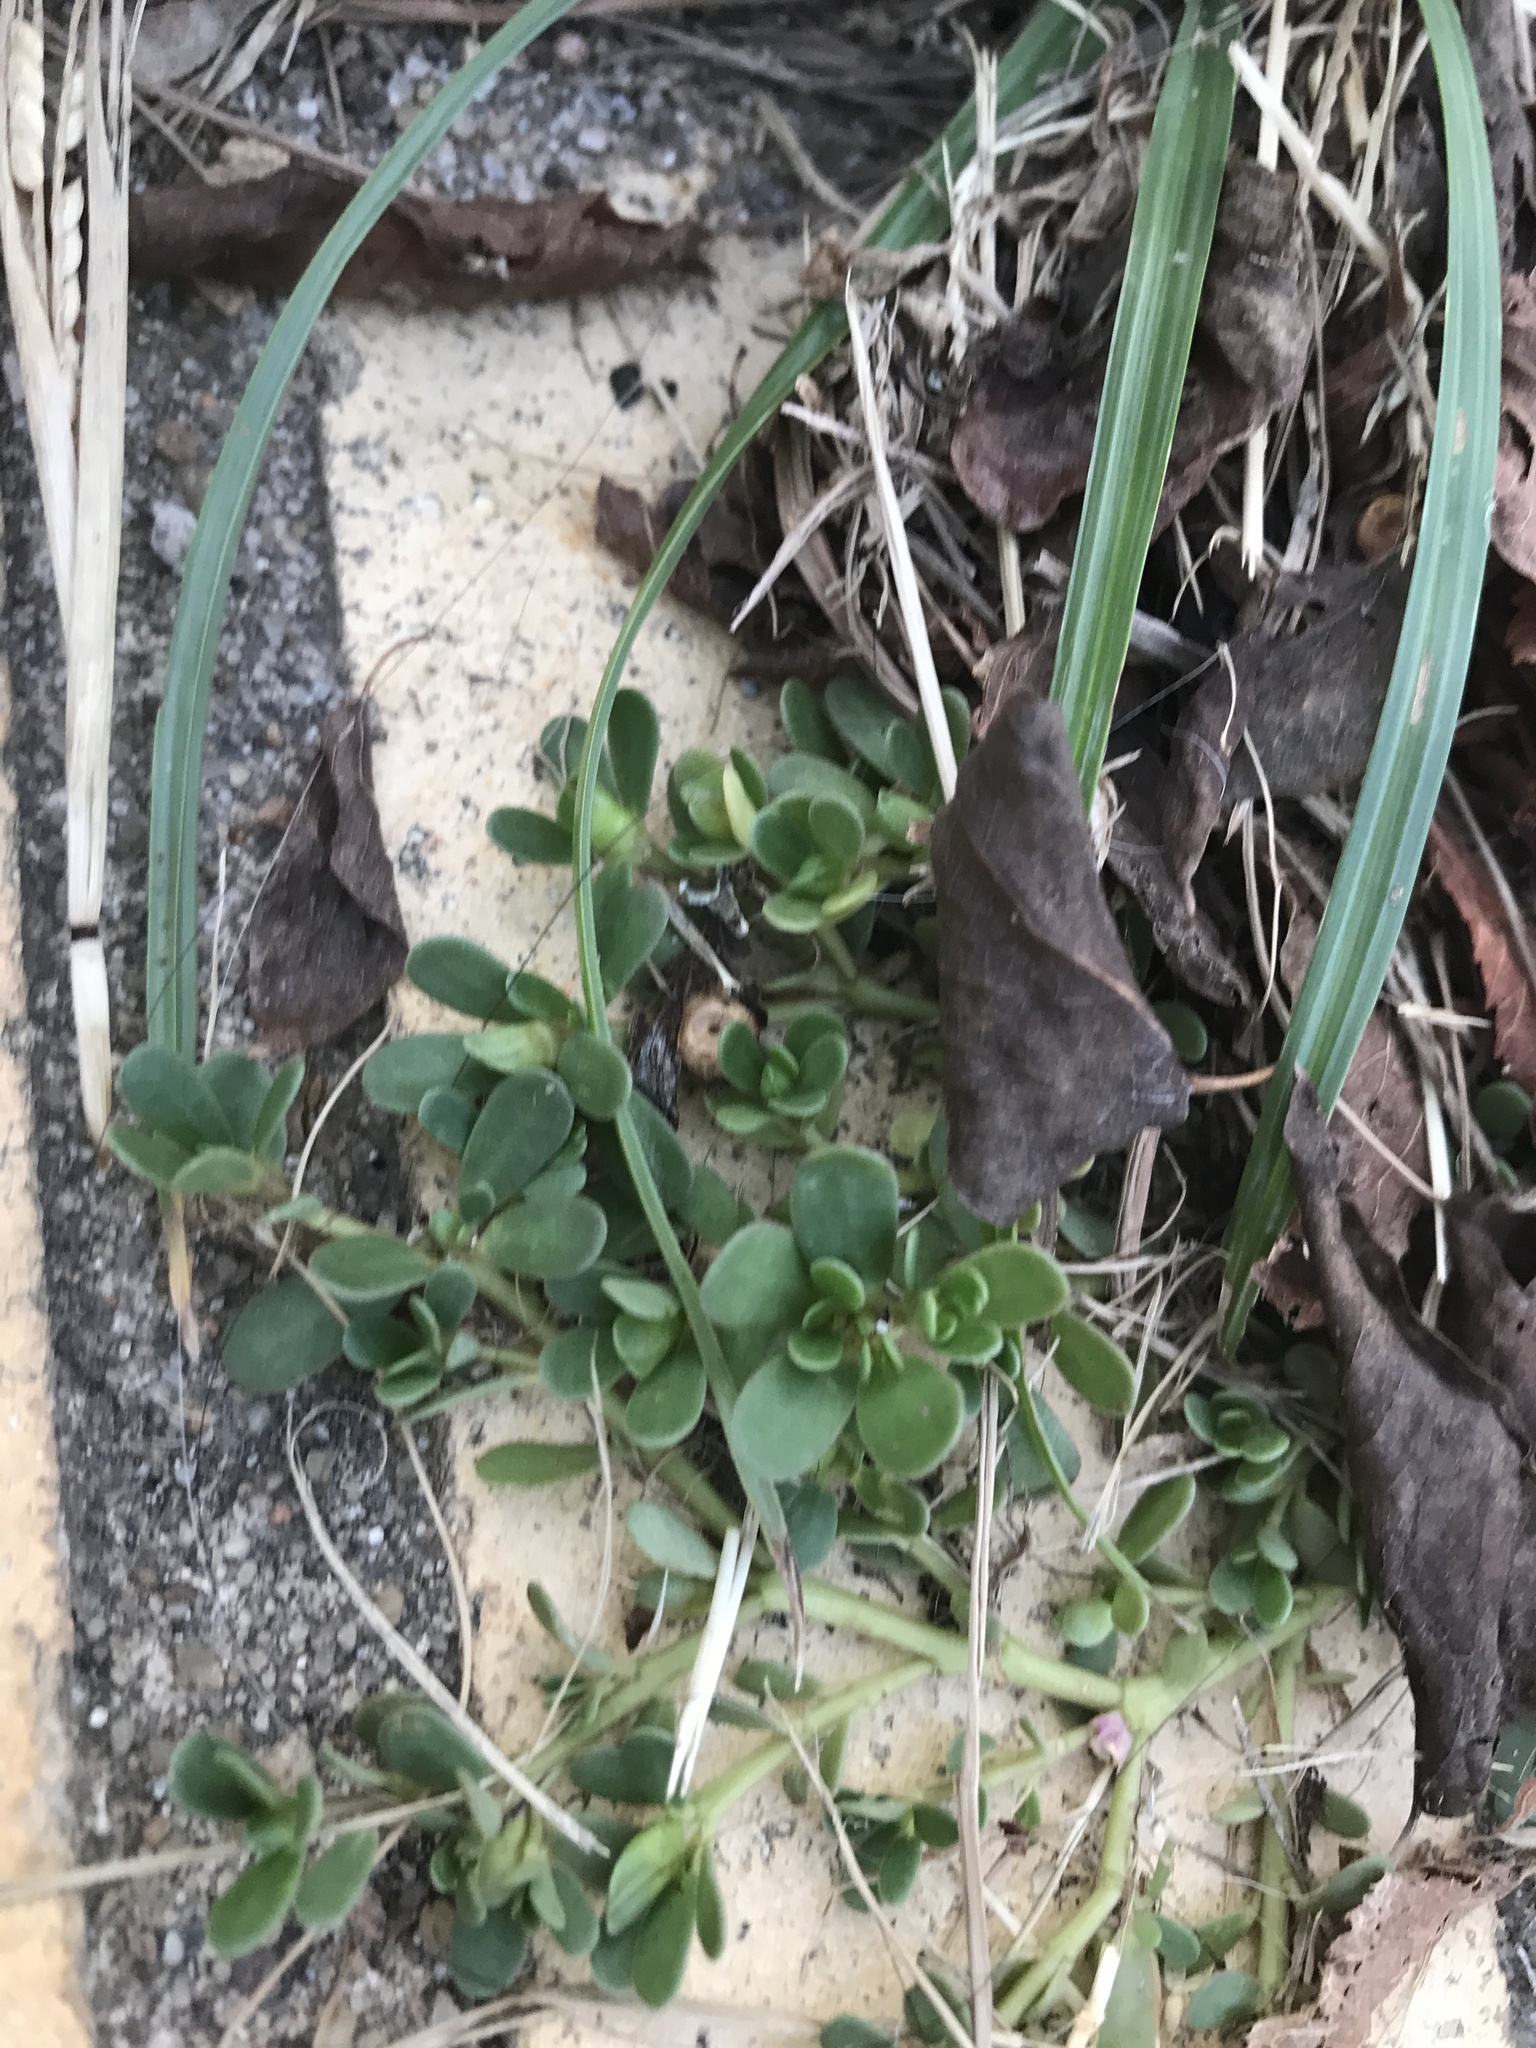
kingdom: Plantae
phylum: Tracheophyta
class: Magnoliopsida
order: Caryophyllales
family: Portulacaceae
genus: Portulaca
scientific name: Portulaca oleracea
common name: Common purslane
